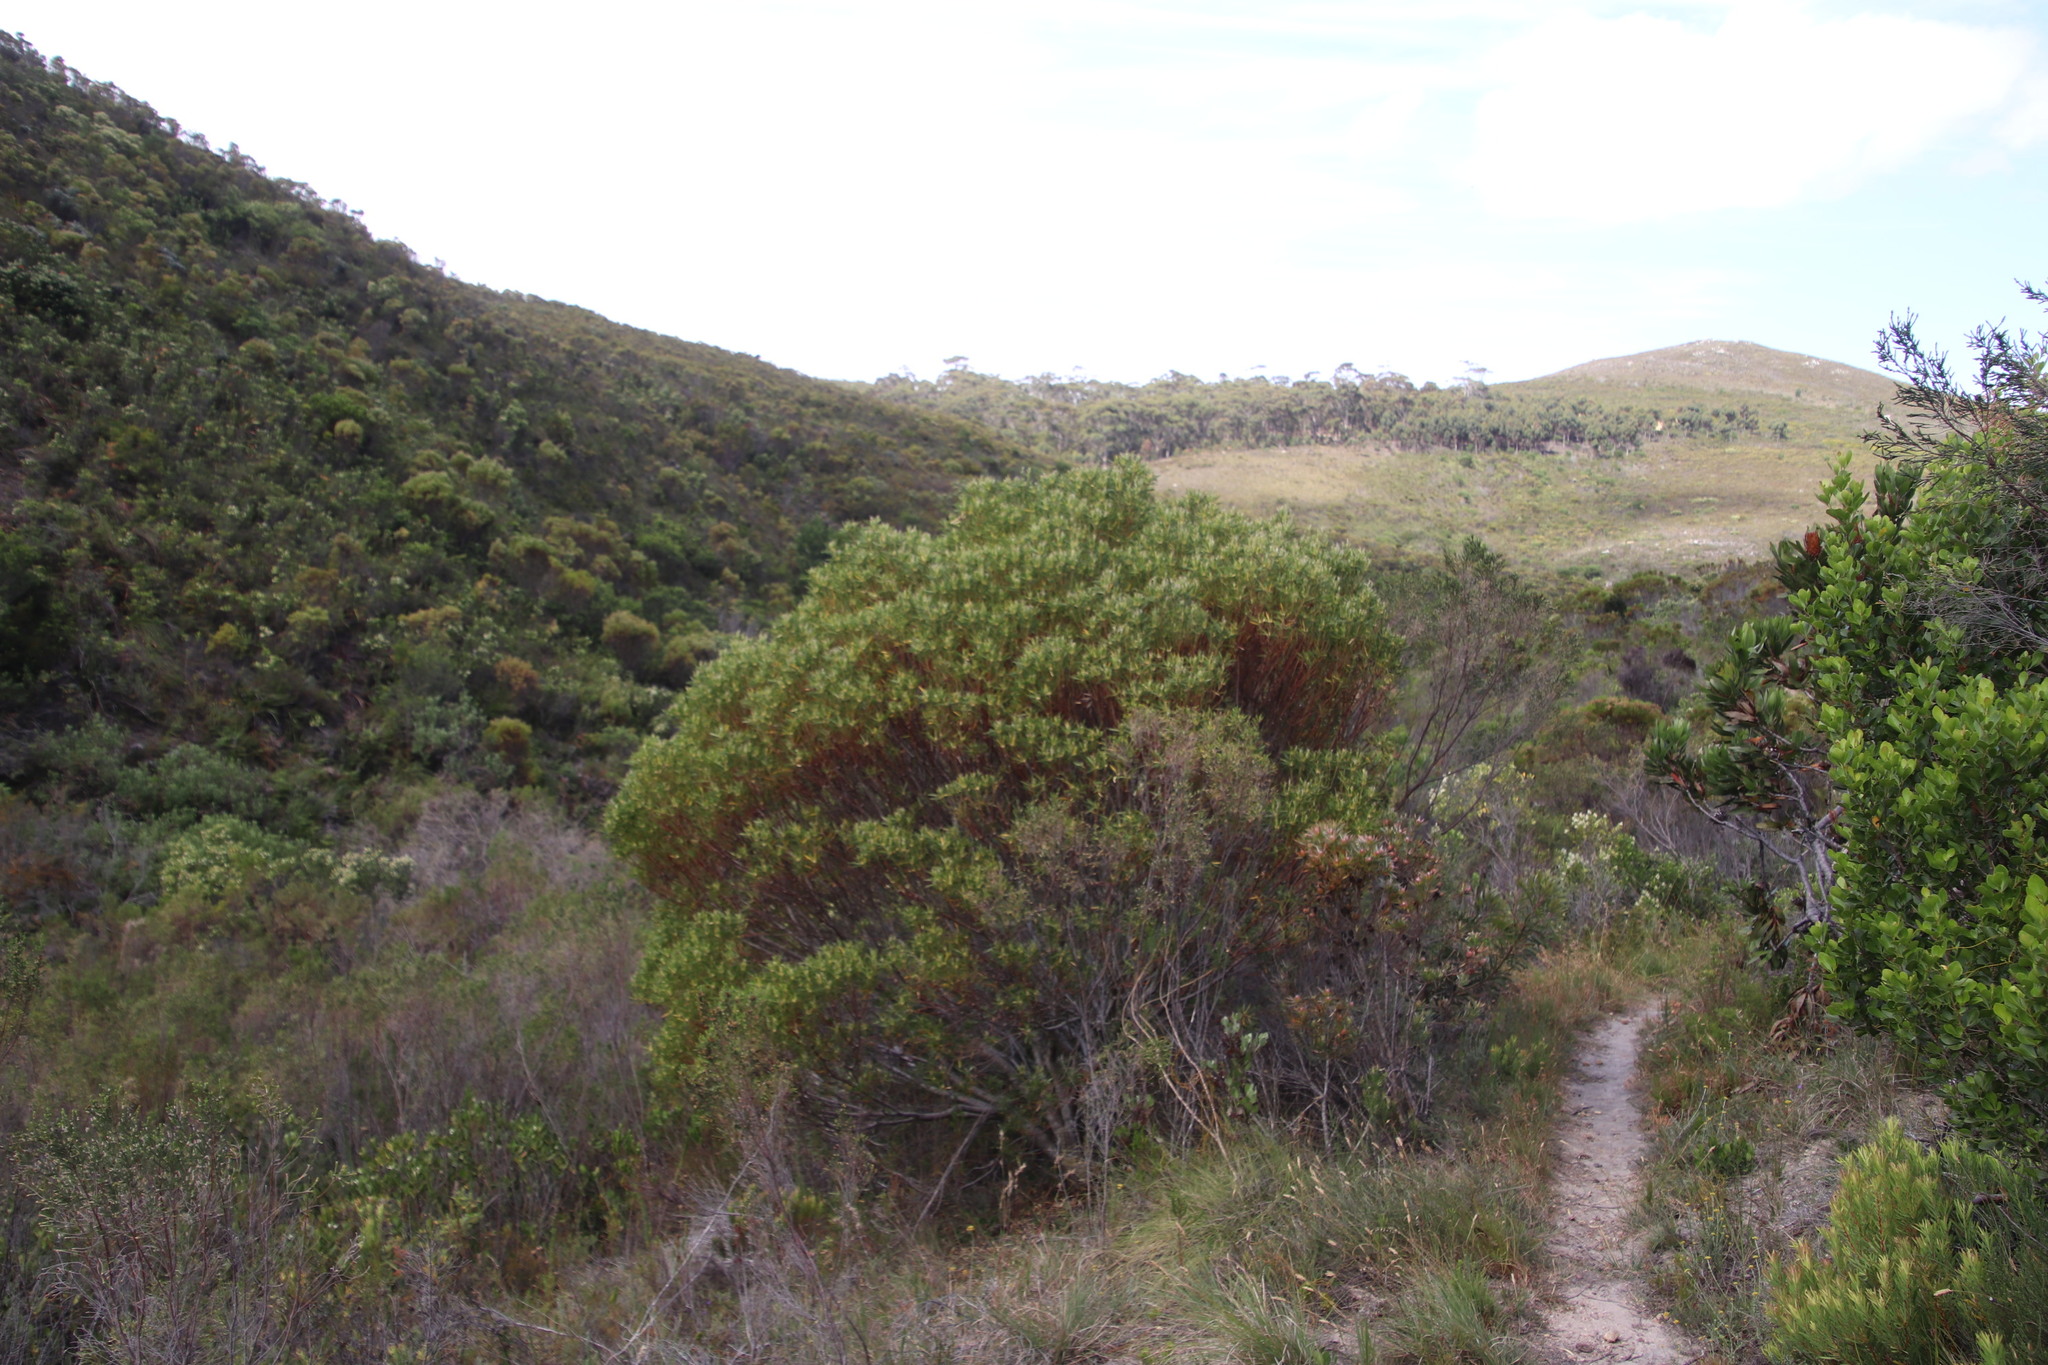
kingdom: Plantae
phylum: Tracheophyta
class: Magnoliopsida
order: Proteales
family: Proteaceae
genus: Leucadendron
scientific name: Leucadendron coniferum
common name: Dune conebush
